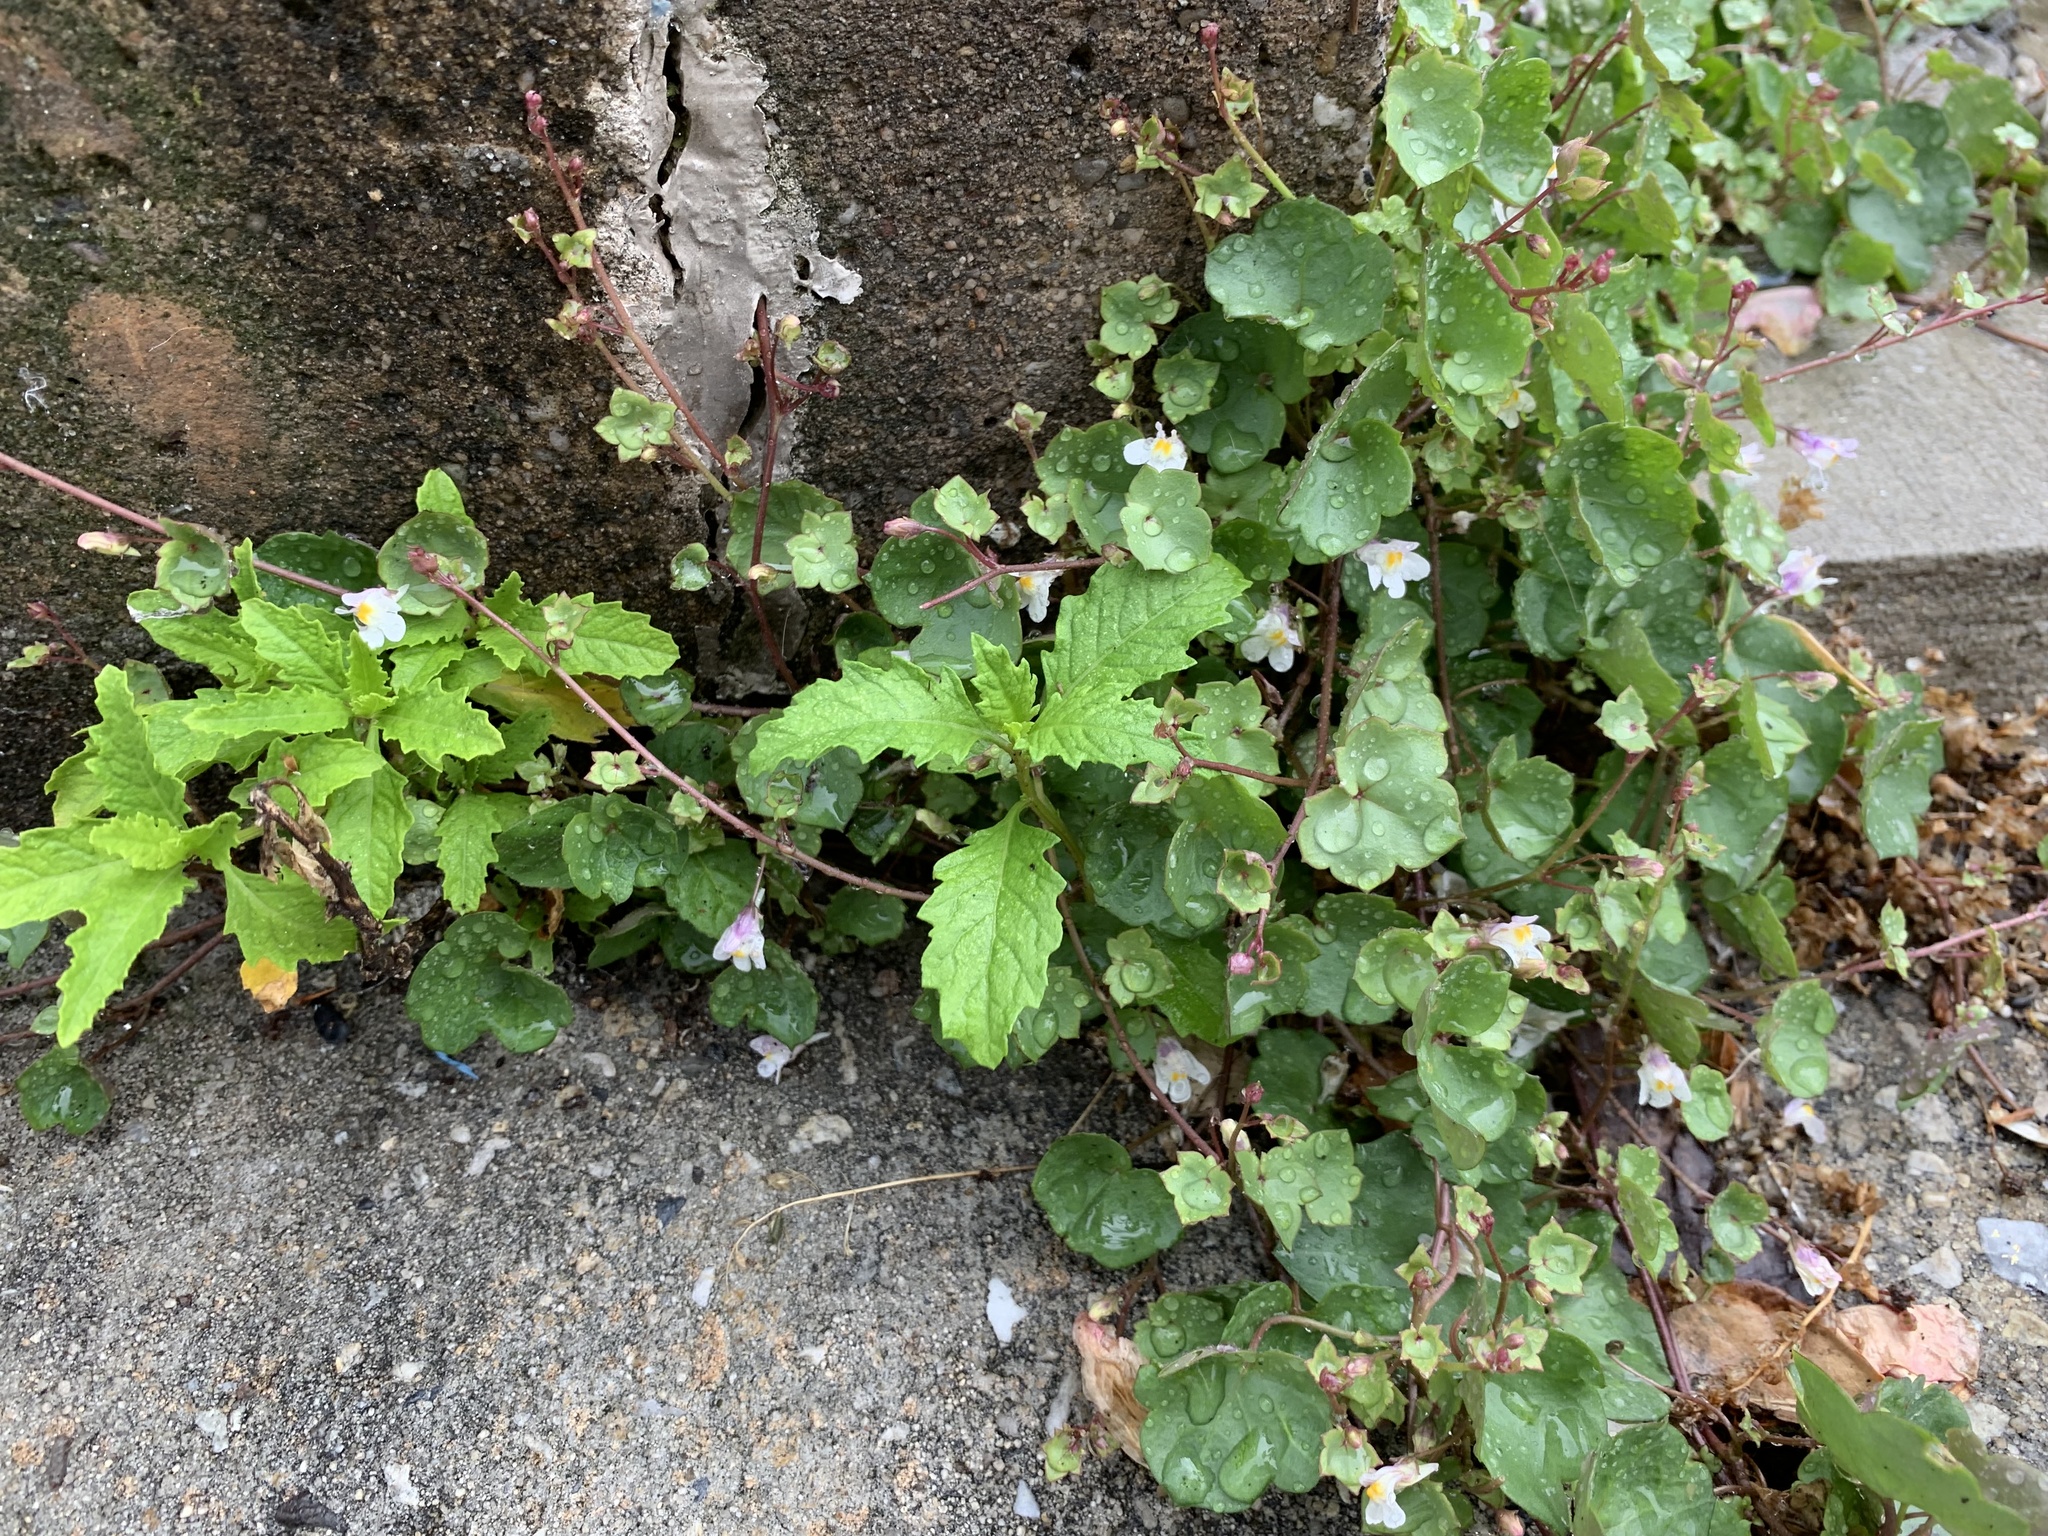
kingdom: Plantae
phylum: Tracheophyta
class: Magnoliopsida
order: Lamiales
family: Plantaginaceae
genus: Cymbalaria
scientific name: Cymbalaria muralis
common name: Ivy-leaved toadflax
